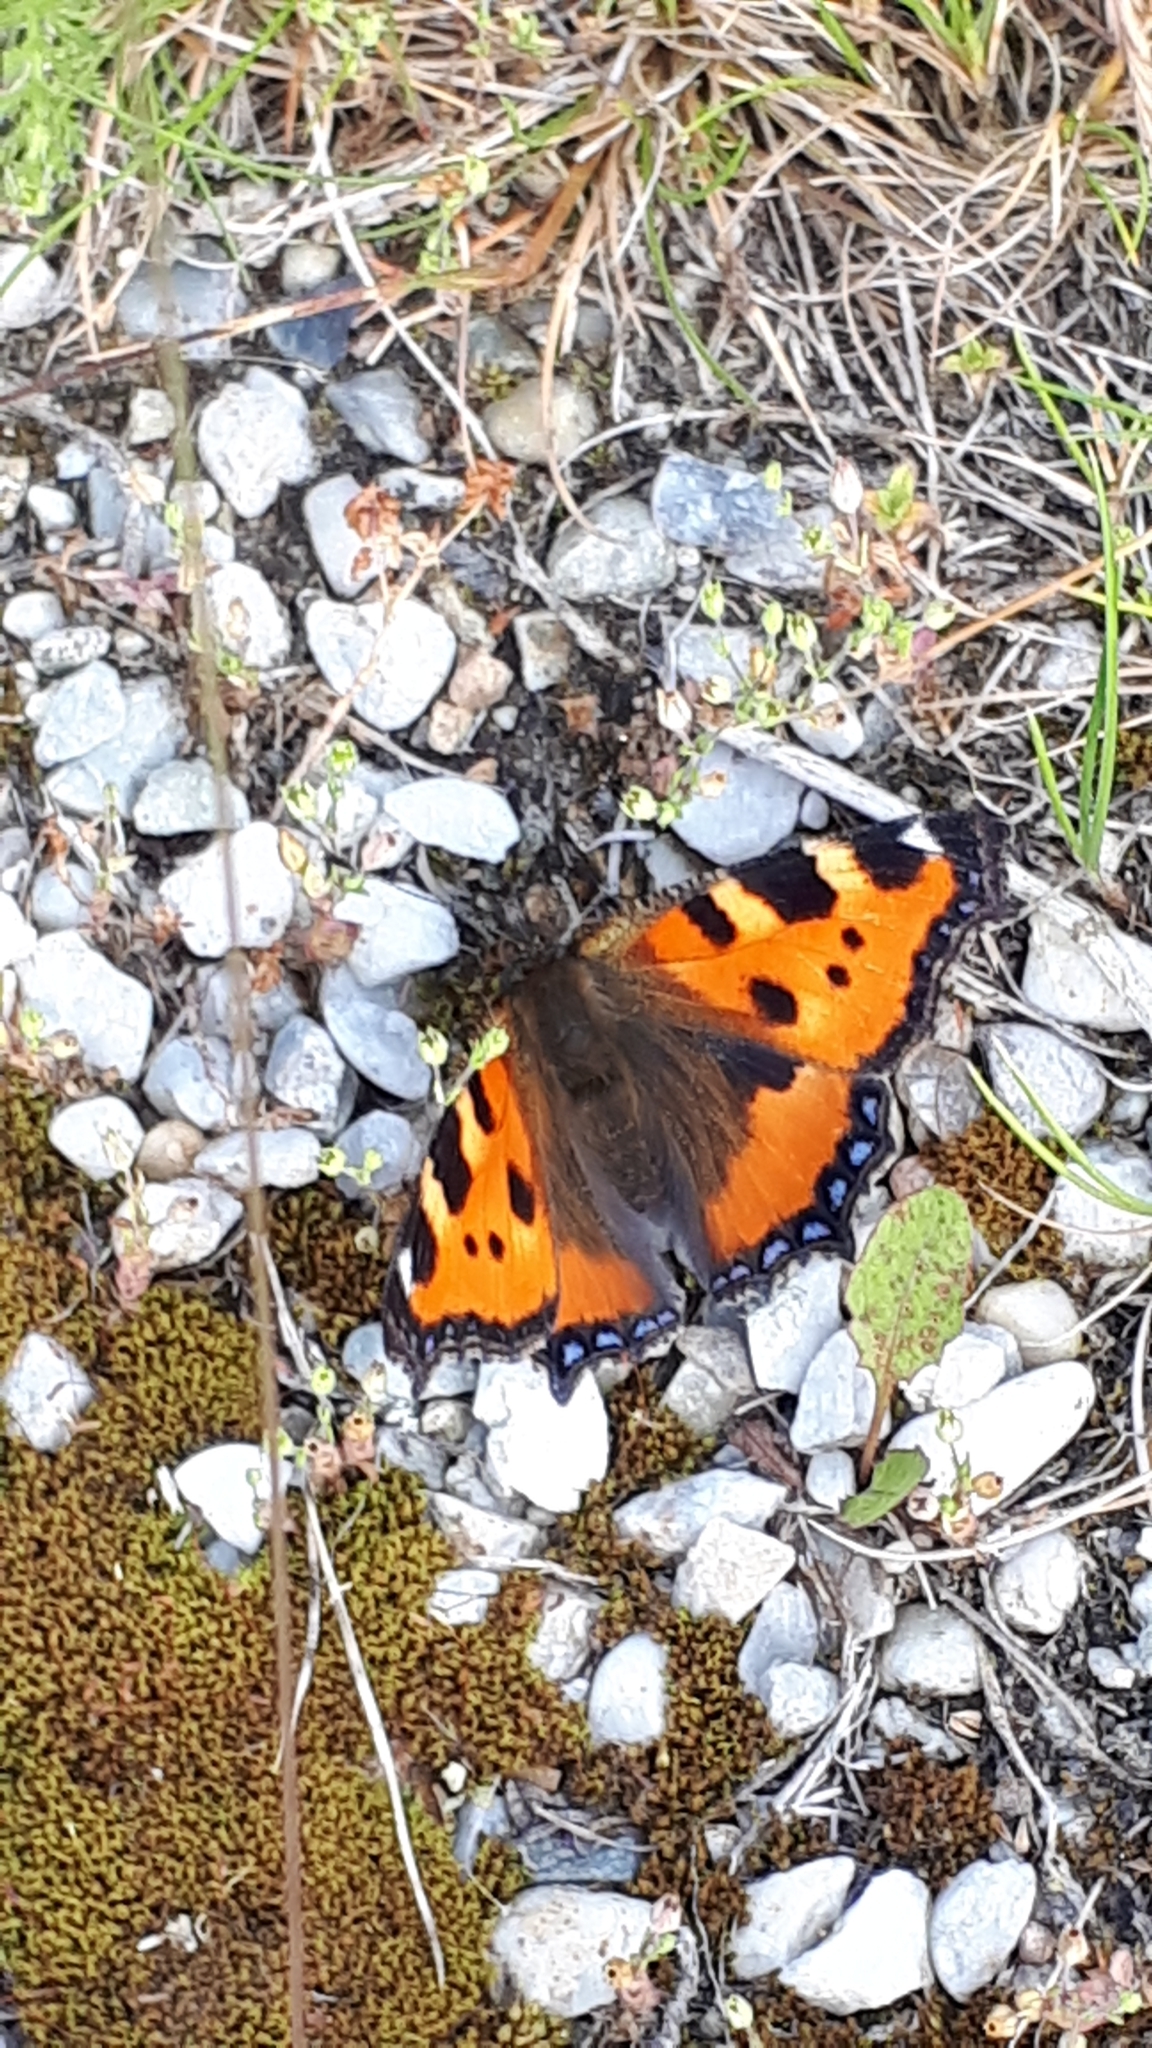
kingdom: Animalia
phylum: Arthropoda
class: Insecta
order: Lepidoptera
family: Nymphalidae
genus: Aglais
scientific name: Aglais urticae
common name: Small tortoiseshell
